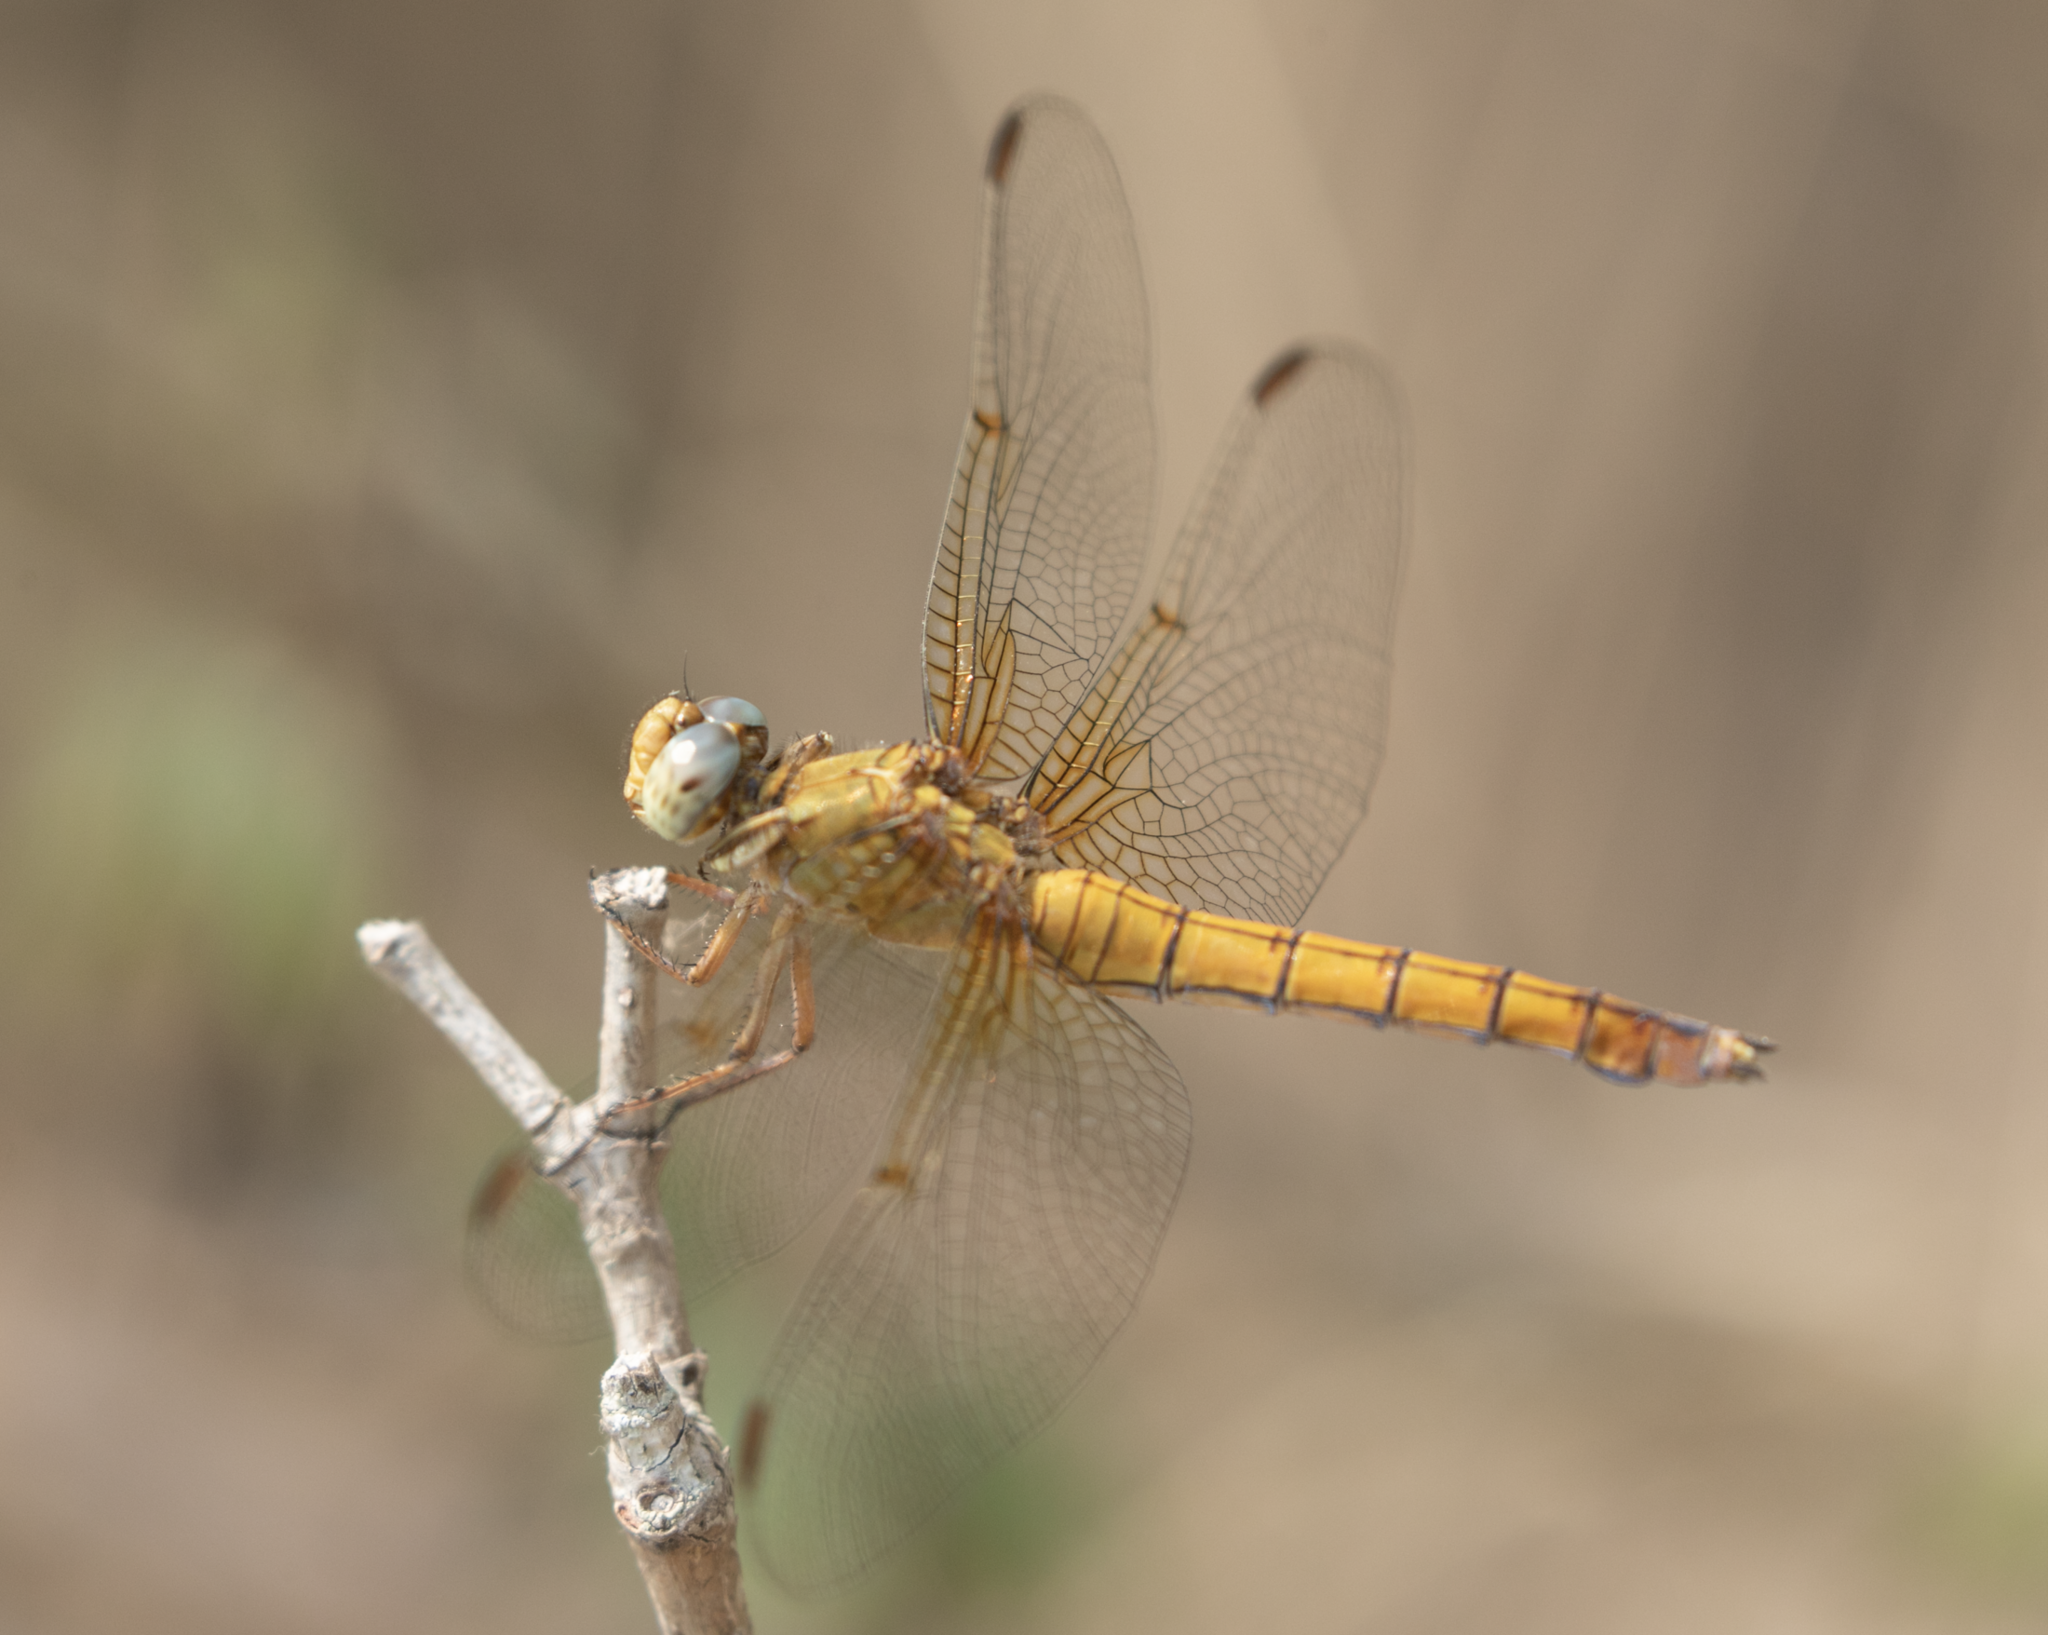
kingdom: Animalia
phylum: Arthropoda
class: Insecta
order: Odonata
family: Libellulidae
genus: Orthetrum
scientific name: Orthetrum coerulescens
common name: Keeled skimmer
